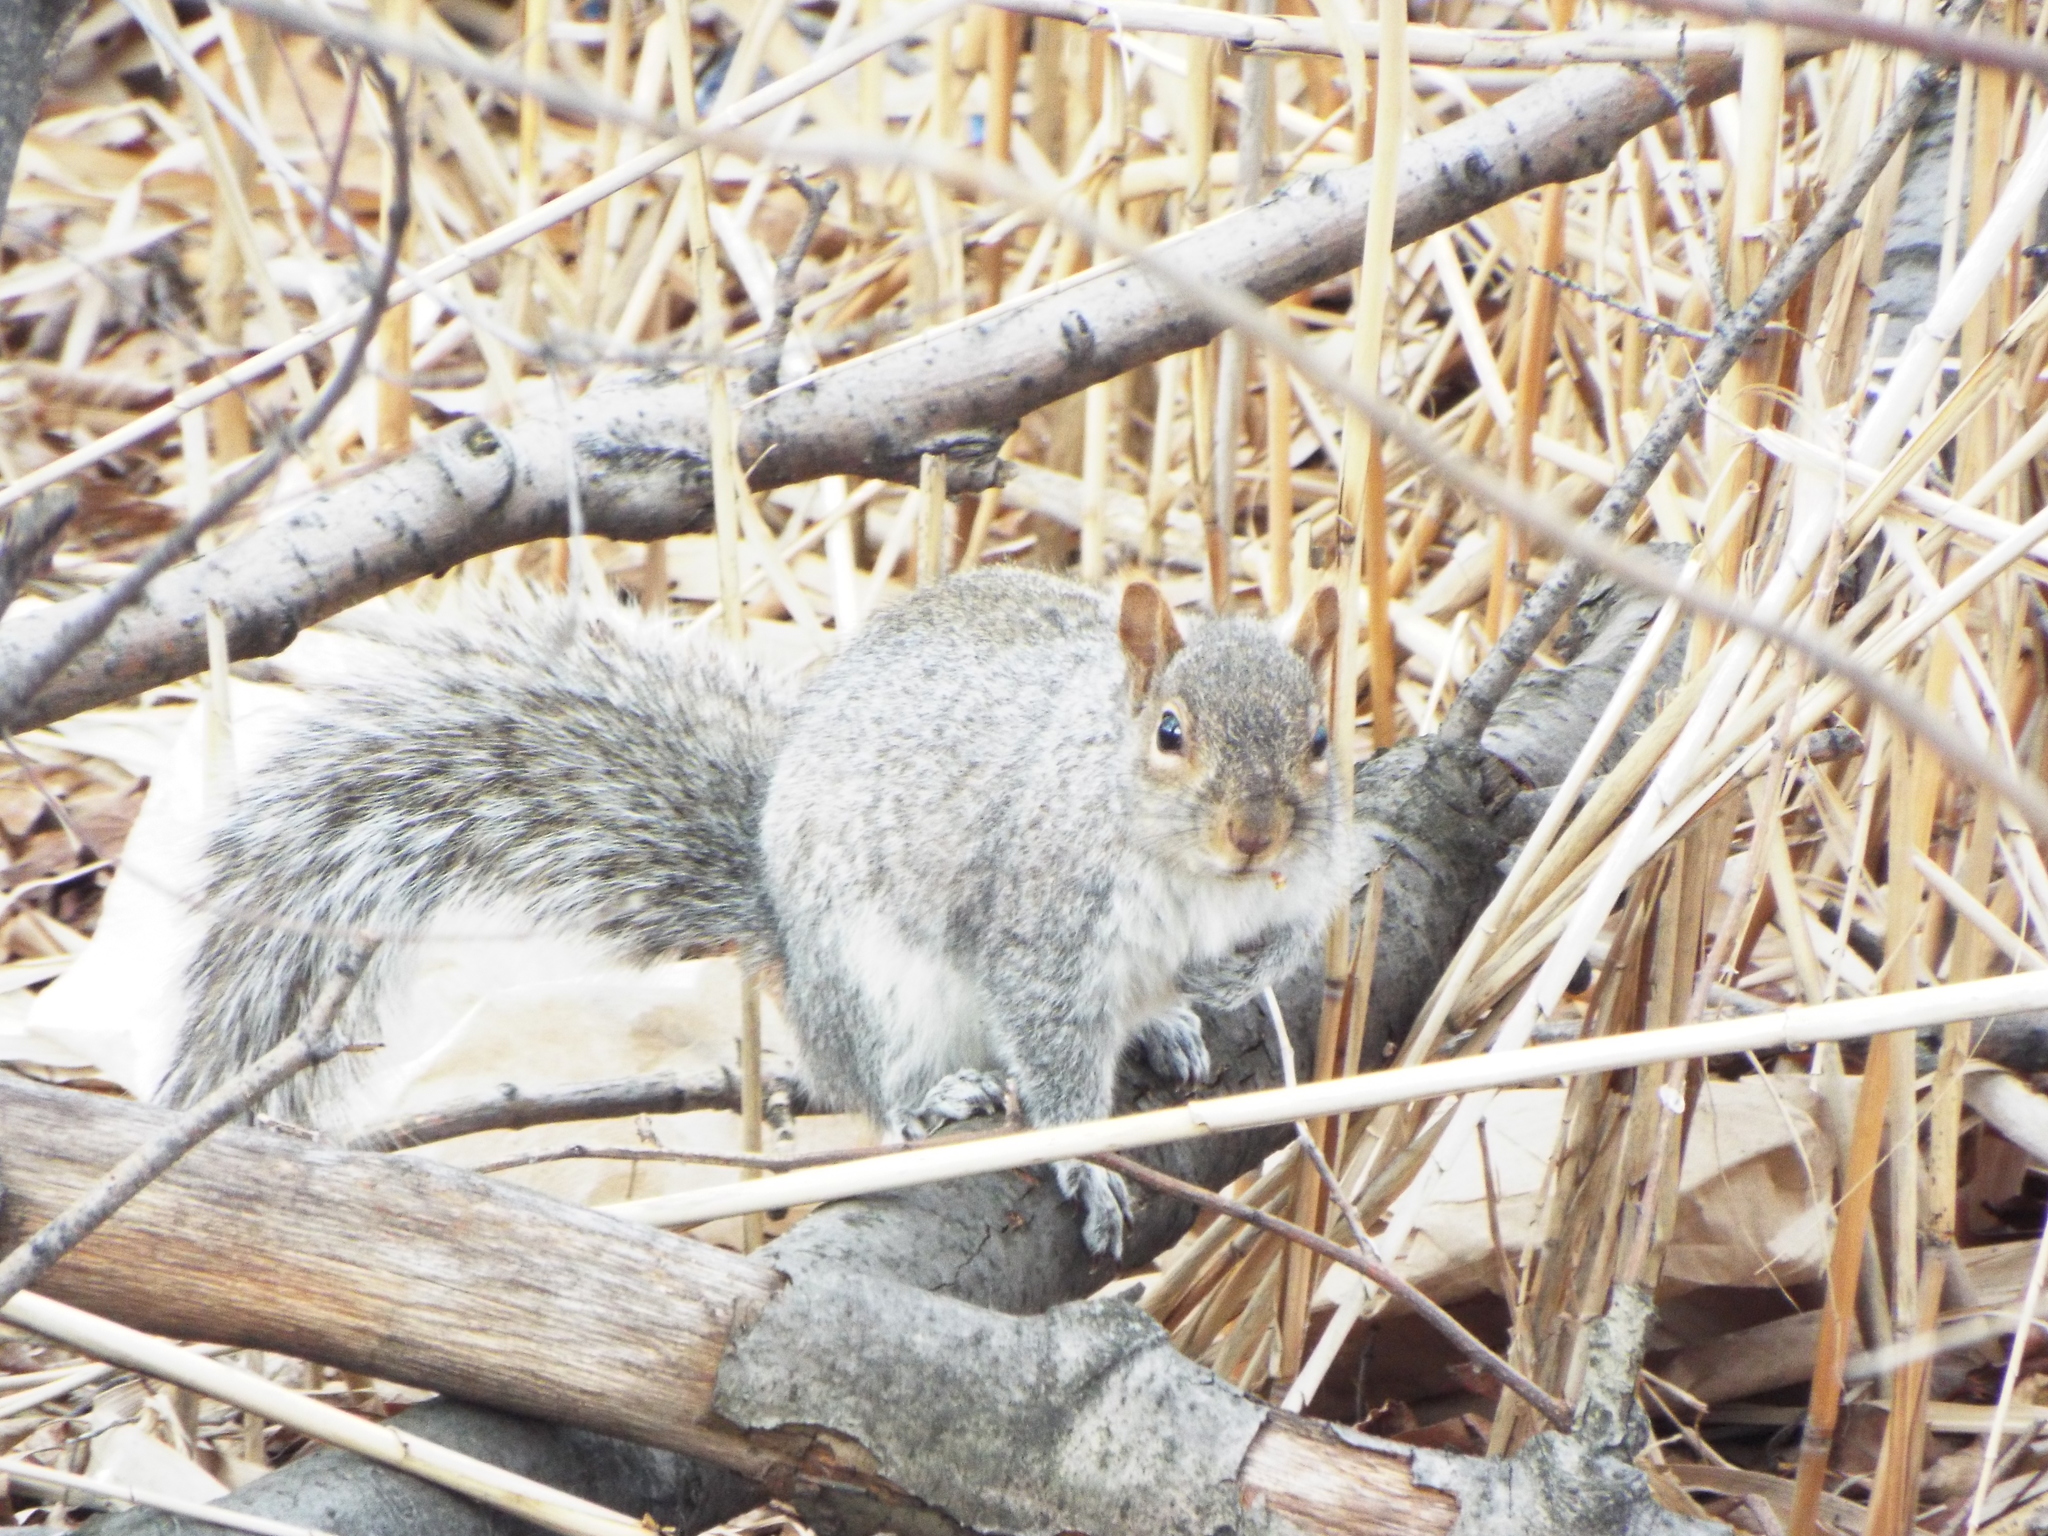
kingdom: Animalia
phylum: Chordata
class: Mammalia
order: Rodentia
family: Sciuridae
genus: Sciurus
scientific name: Sciurus carolinensis
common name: Eastern gray squirrel
